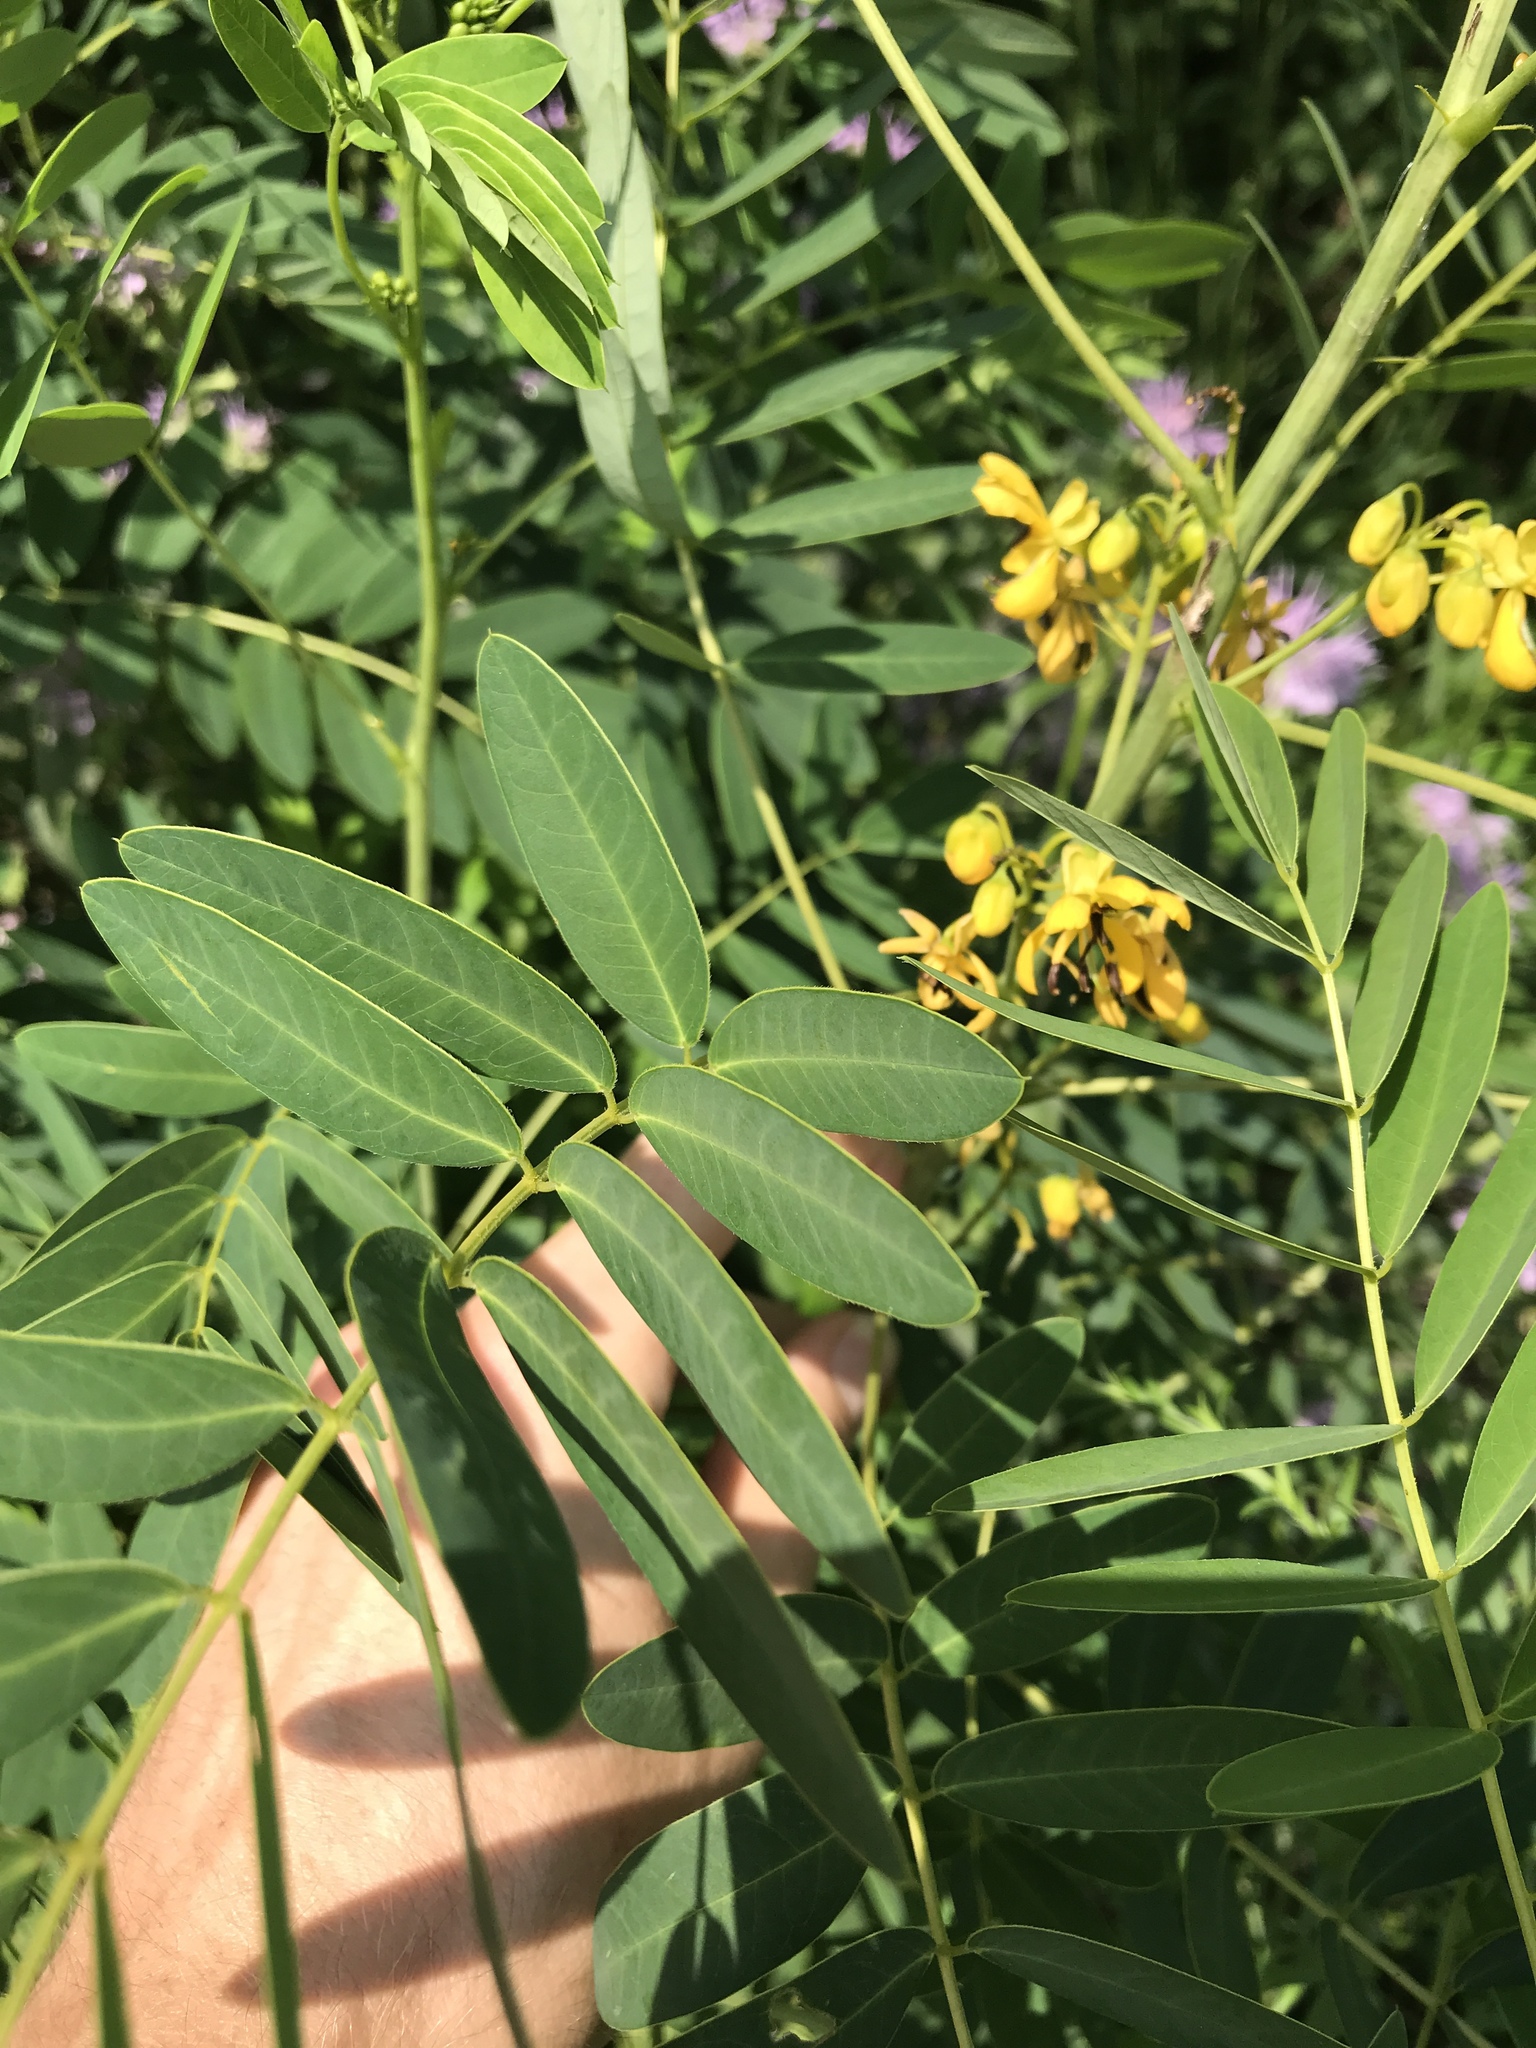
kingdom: Plantae
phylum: Tracheophyta
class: Magnoliopsida
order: Fabales
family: Fabaceae
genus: Senna
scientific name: Senna marilandica
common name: American senna
